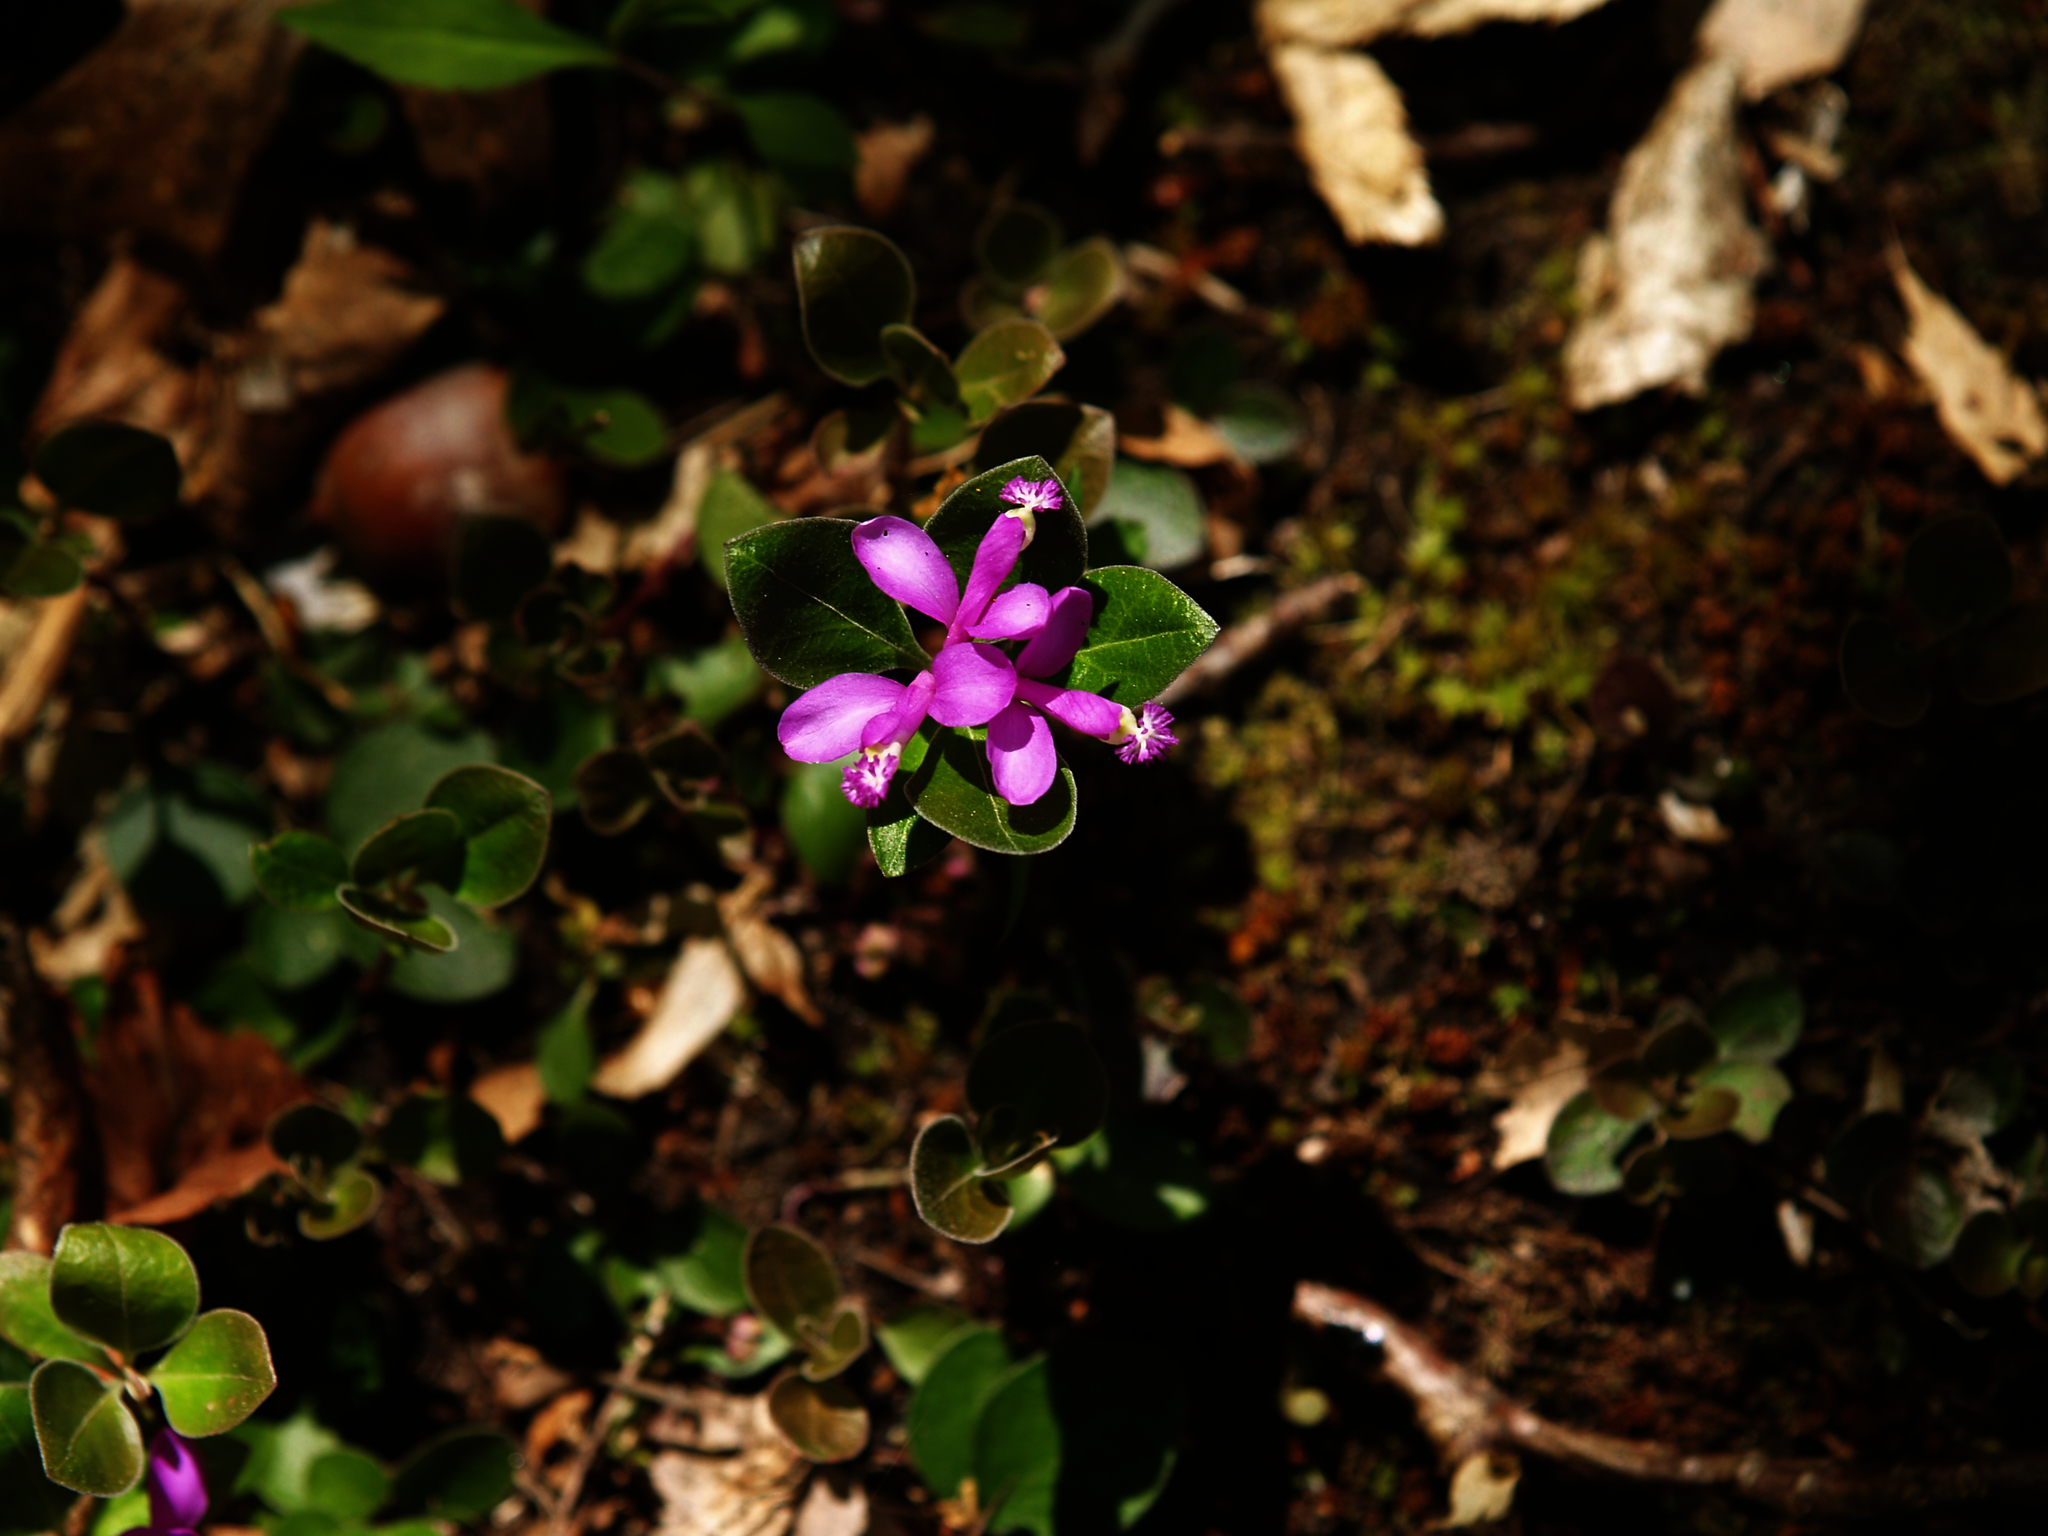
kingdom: Plantae
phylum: Tracheophyta
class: Magnoliopsida
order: Fabales
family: Polygalaceae
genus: Polygaloides
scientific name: Polygaloides paucifolia
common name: Bird-on-the-wing
